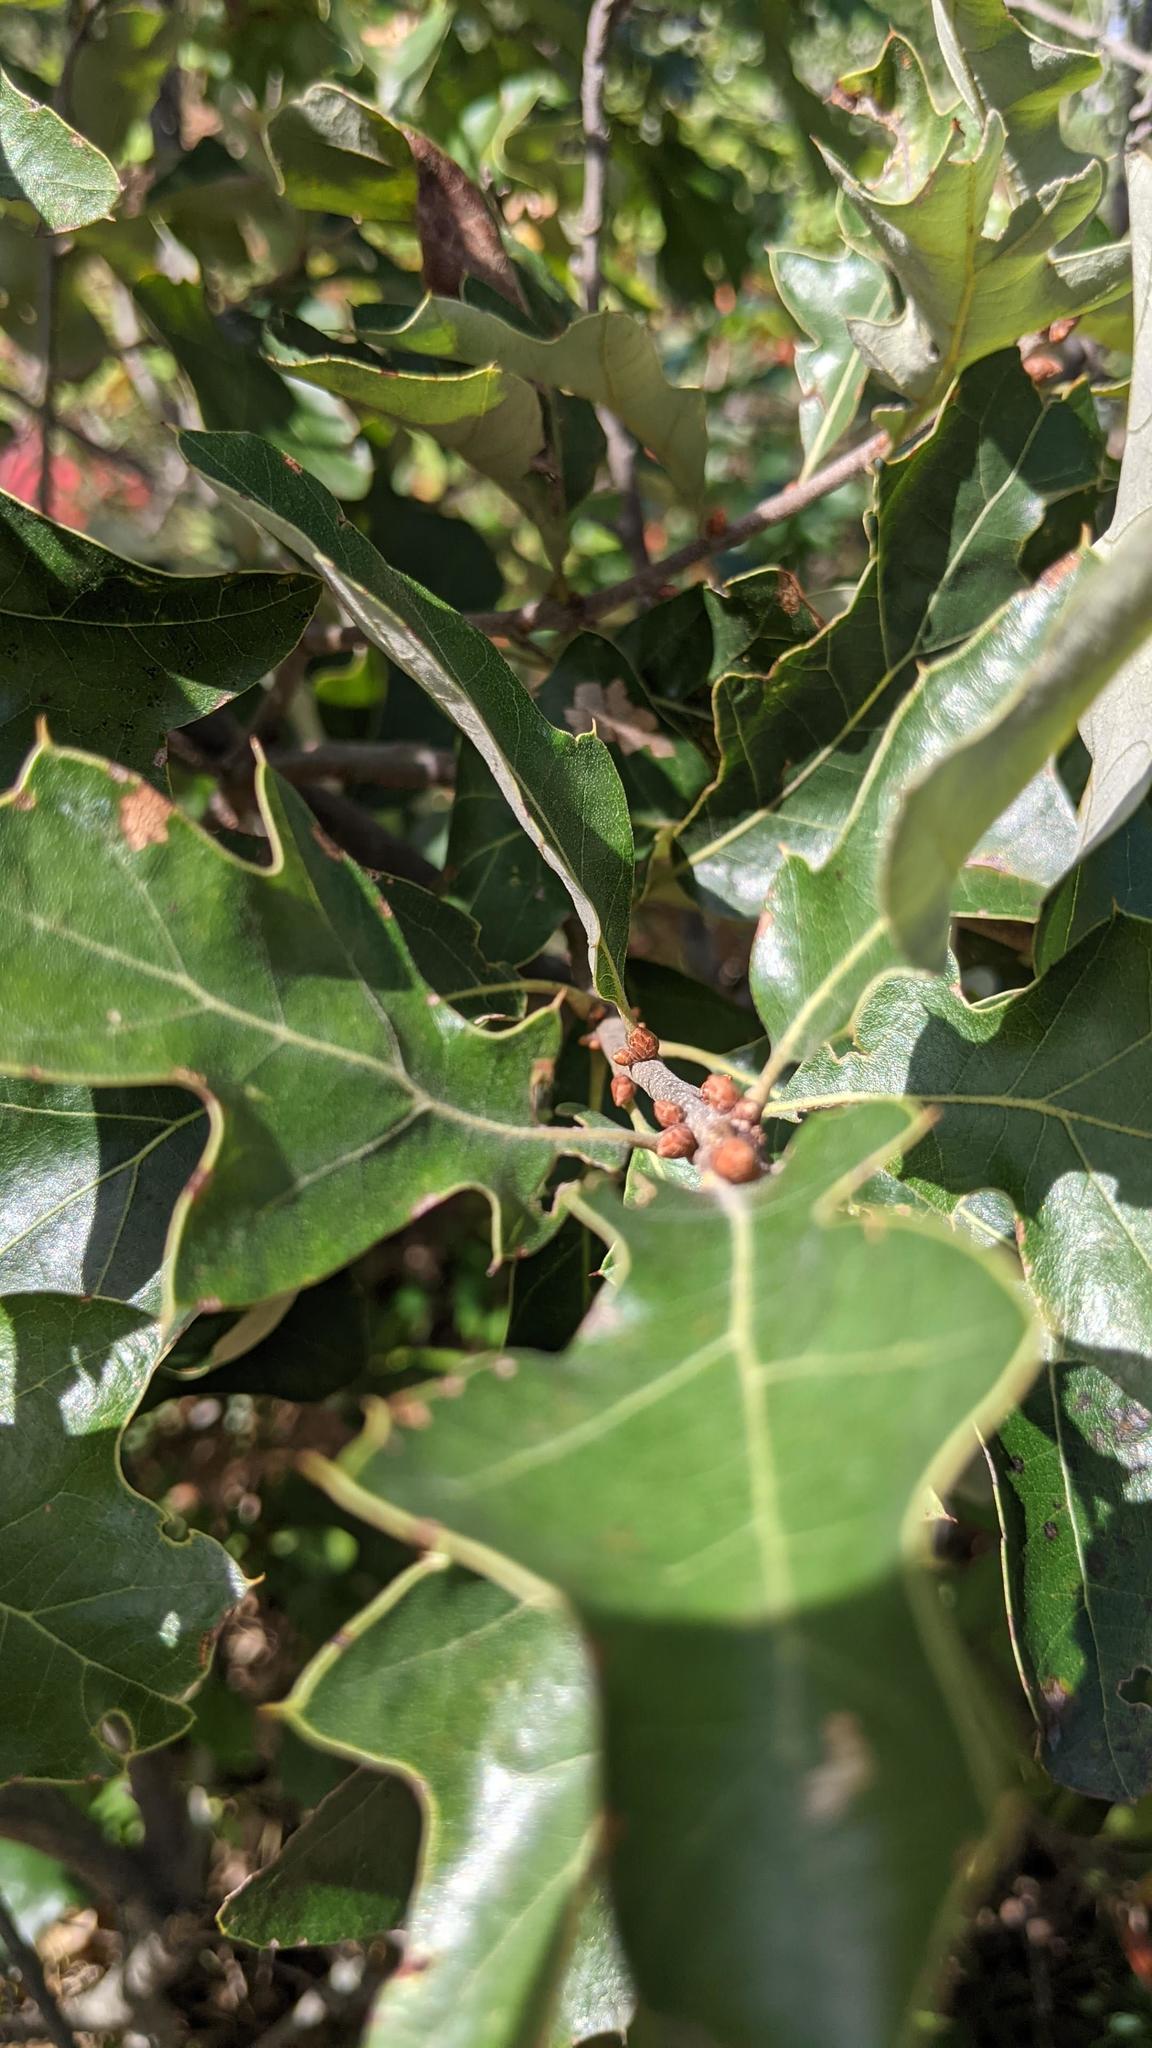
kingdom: Plantae
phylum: Tracheophyta
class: Magnoliopsida
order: Fagales
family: Fagaceae
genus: Quercus
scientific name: Quercus ilicifolia
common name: Bear oak
